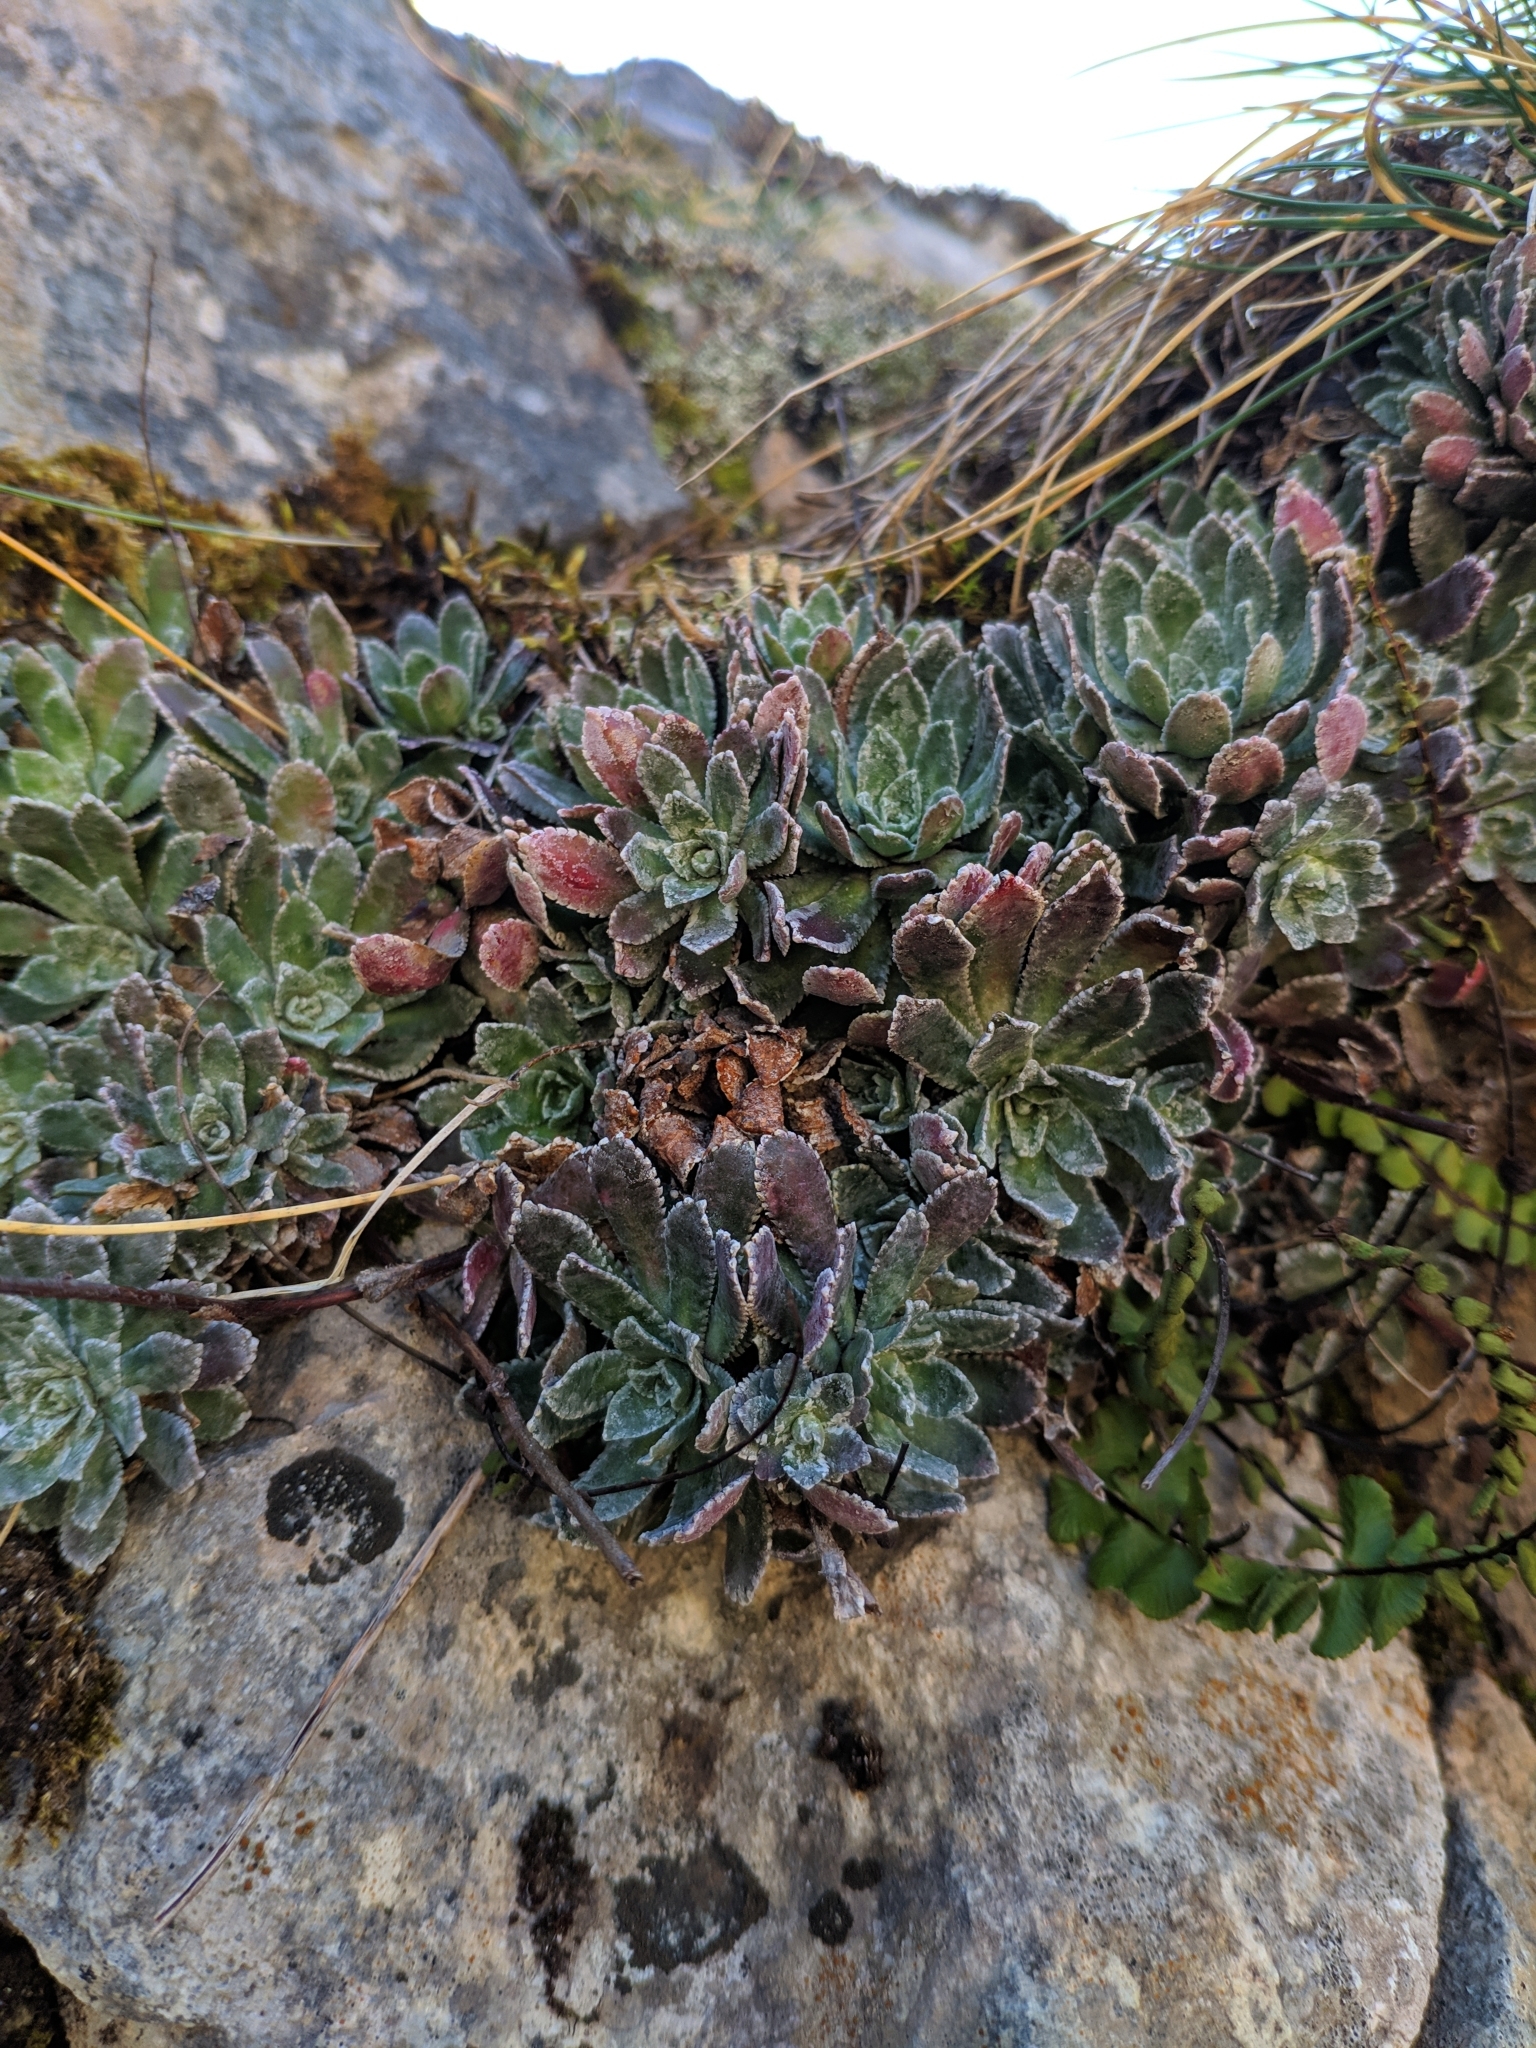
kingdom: Plantae
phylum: Tracheophyta
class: Magnoliopsida
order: Saxifragales
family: Saxifragaceae
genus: Saxifraga
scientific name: Saxifraga paniculata
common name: Livelong saxifrage
